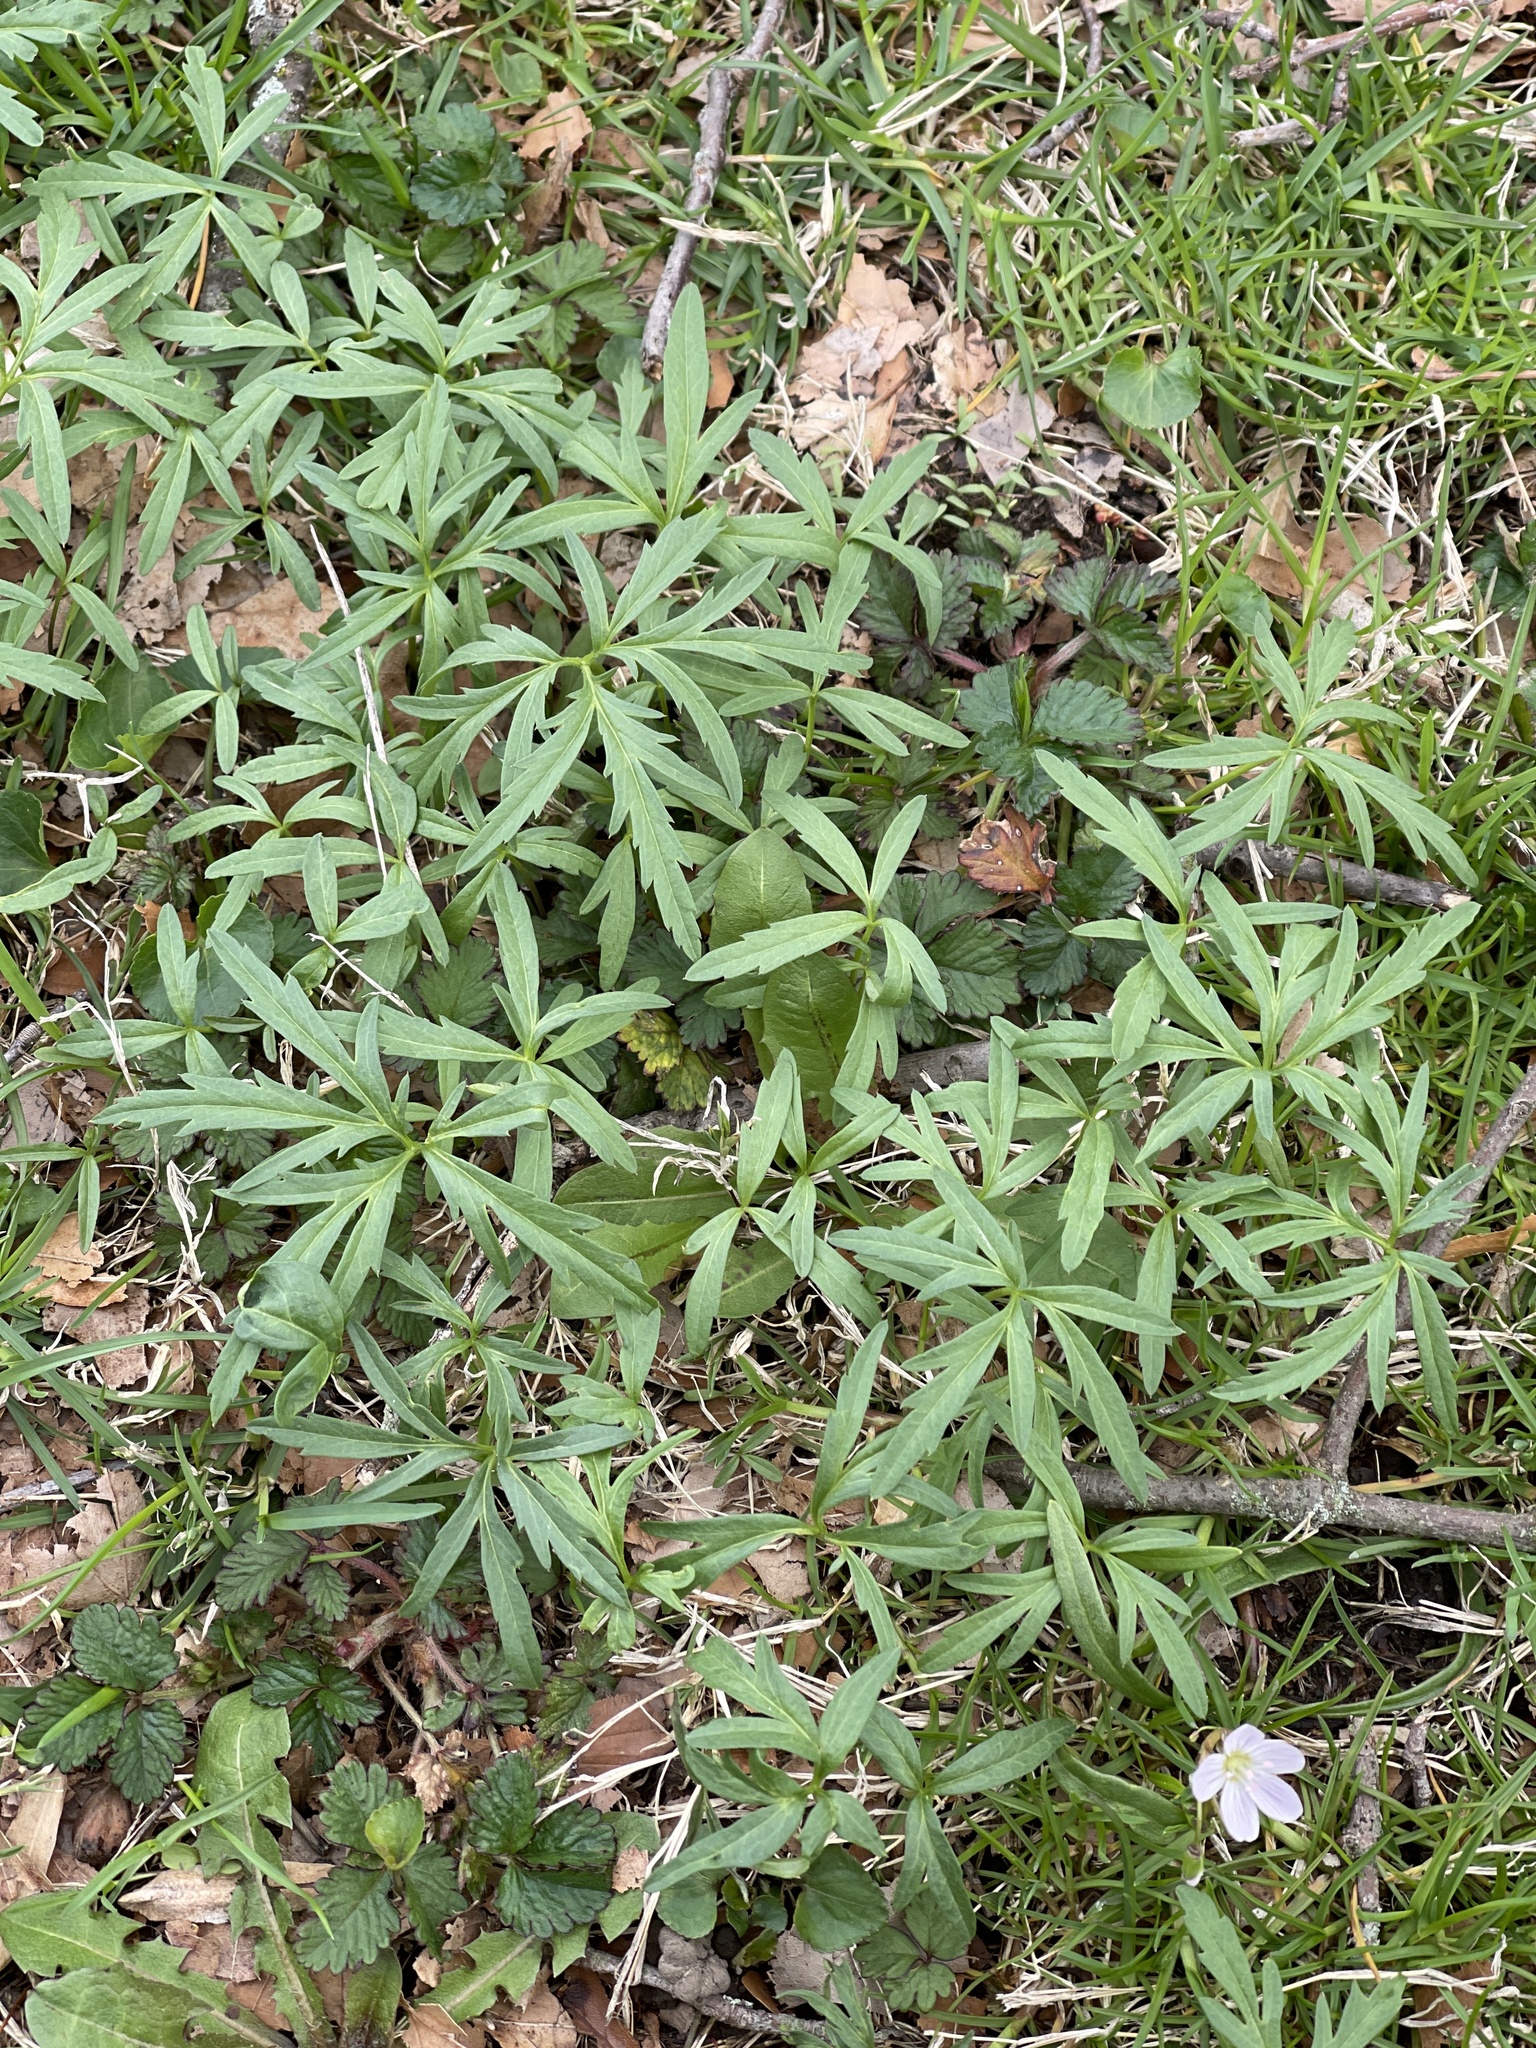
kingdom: Plantae
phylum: Tracheophyta
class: Magnoliopsida
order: Brassicales
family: Brassicaceae
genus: Cardamine
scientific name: Cardamine concatenata
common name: Cut-leaf toothcup
